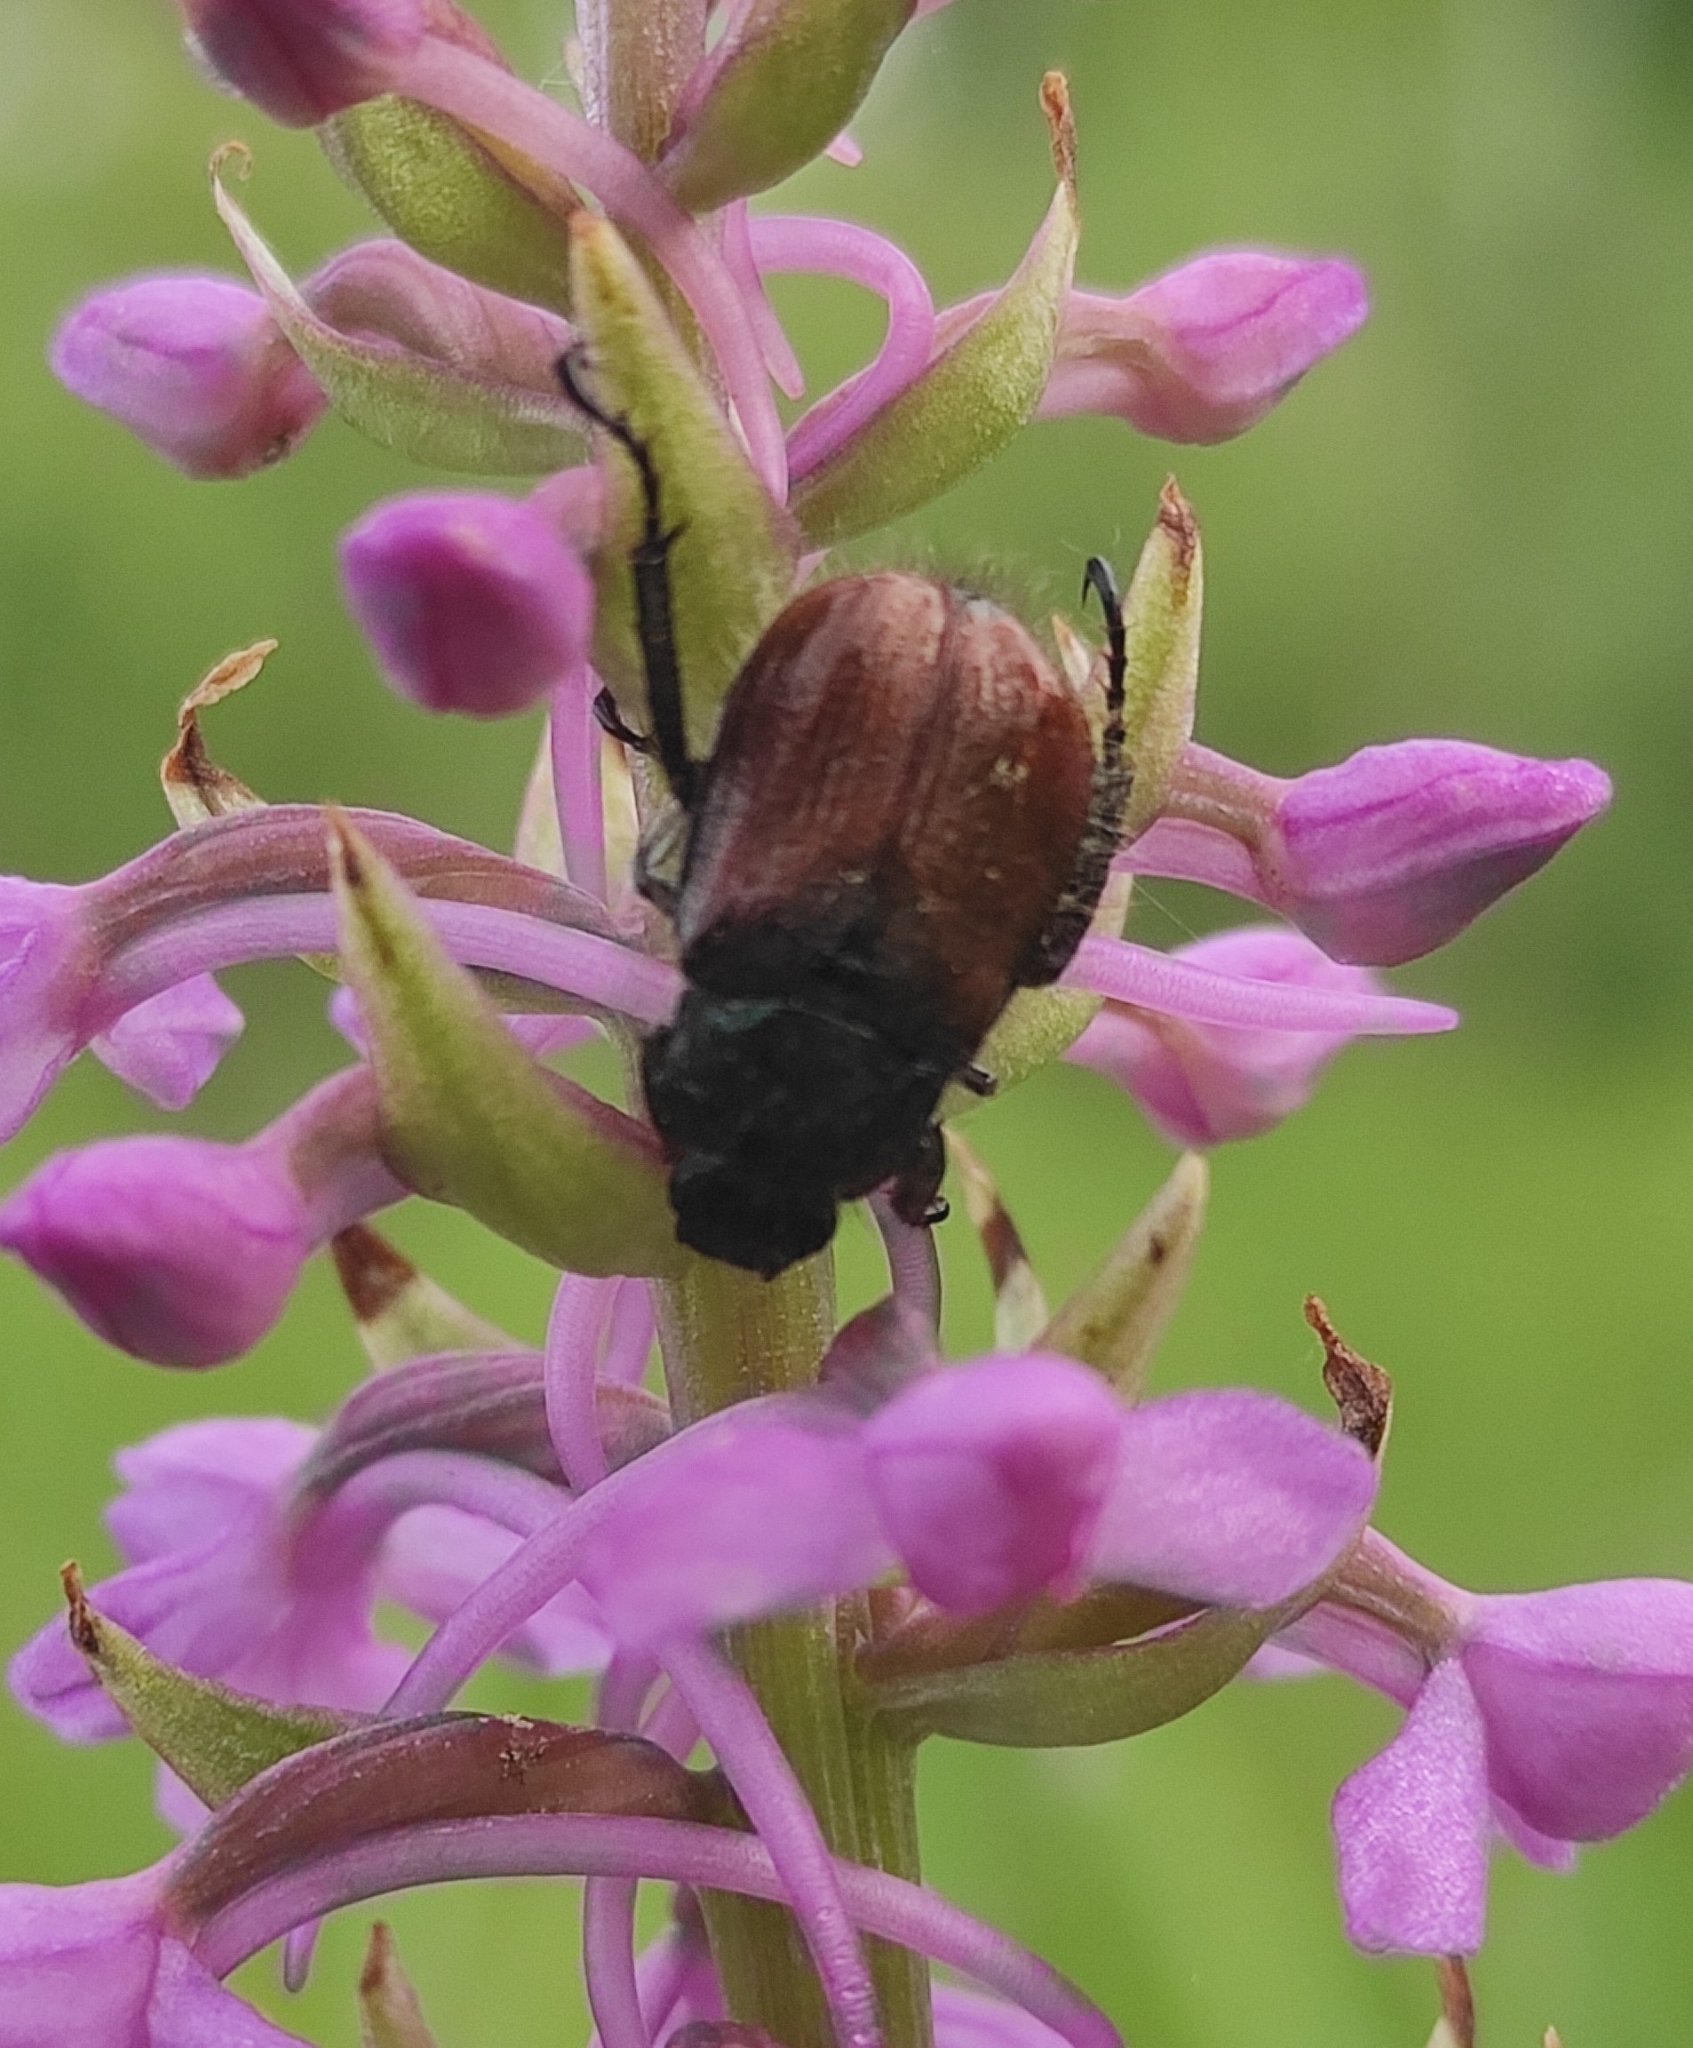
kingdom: Animalia
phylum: Arthropoda
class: Insecta
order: Coleoptera
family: Scarabaeidae
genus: Phyllopertha
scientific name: Phyllopertha horticola
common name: Garden chafer
